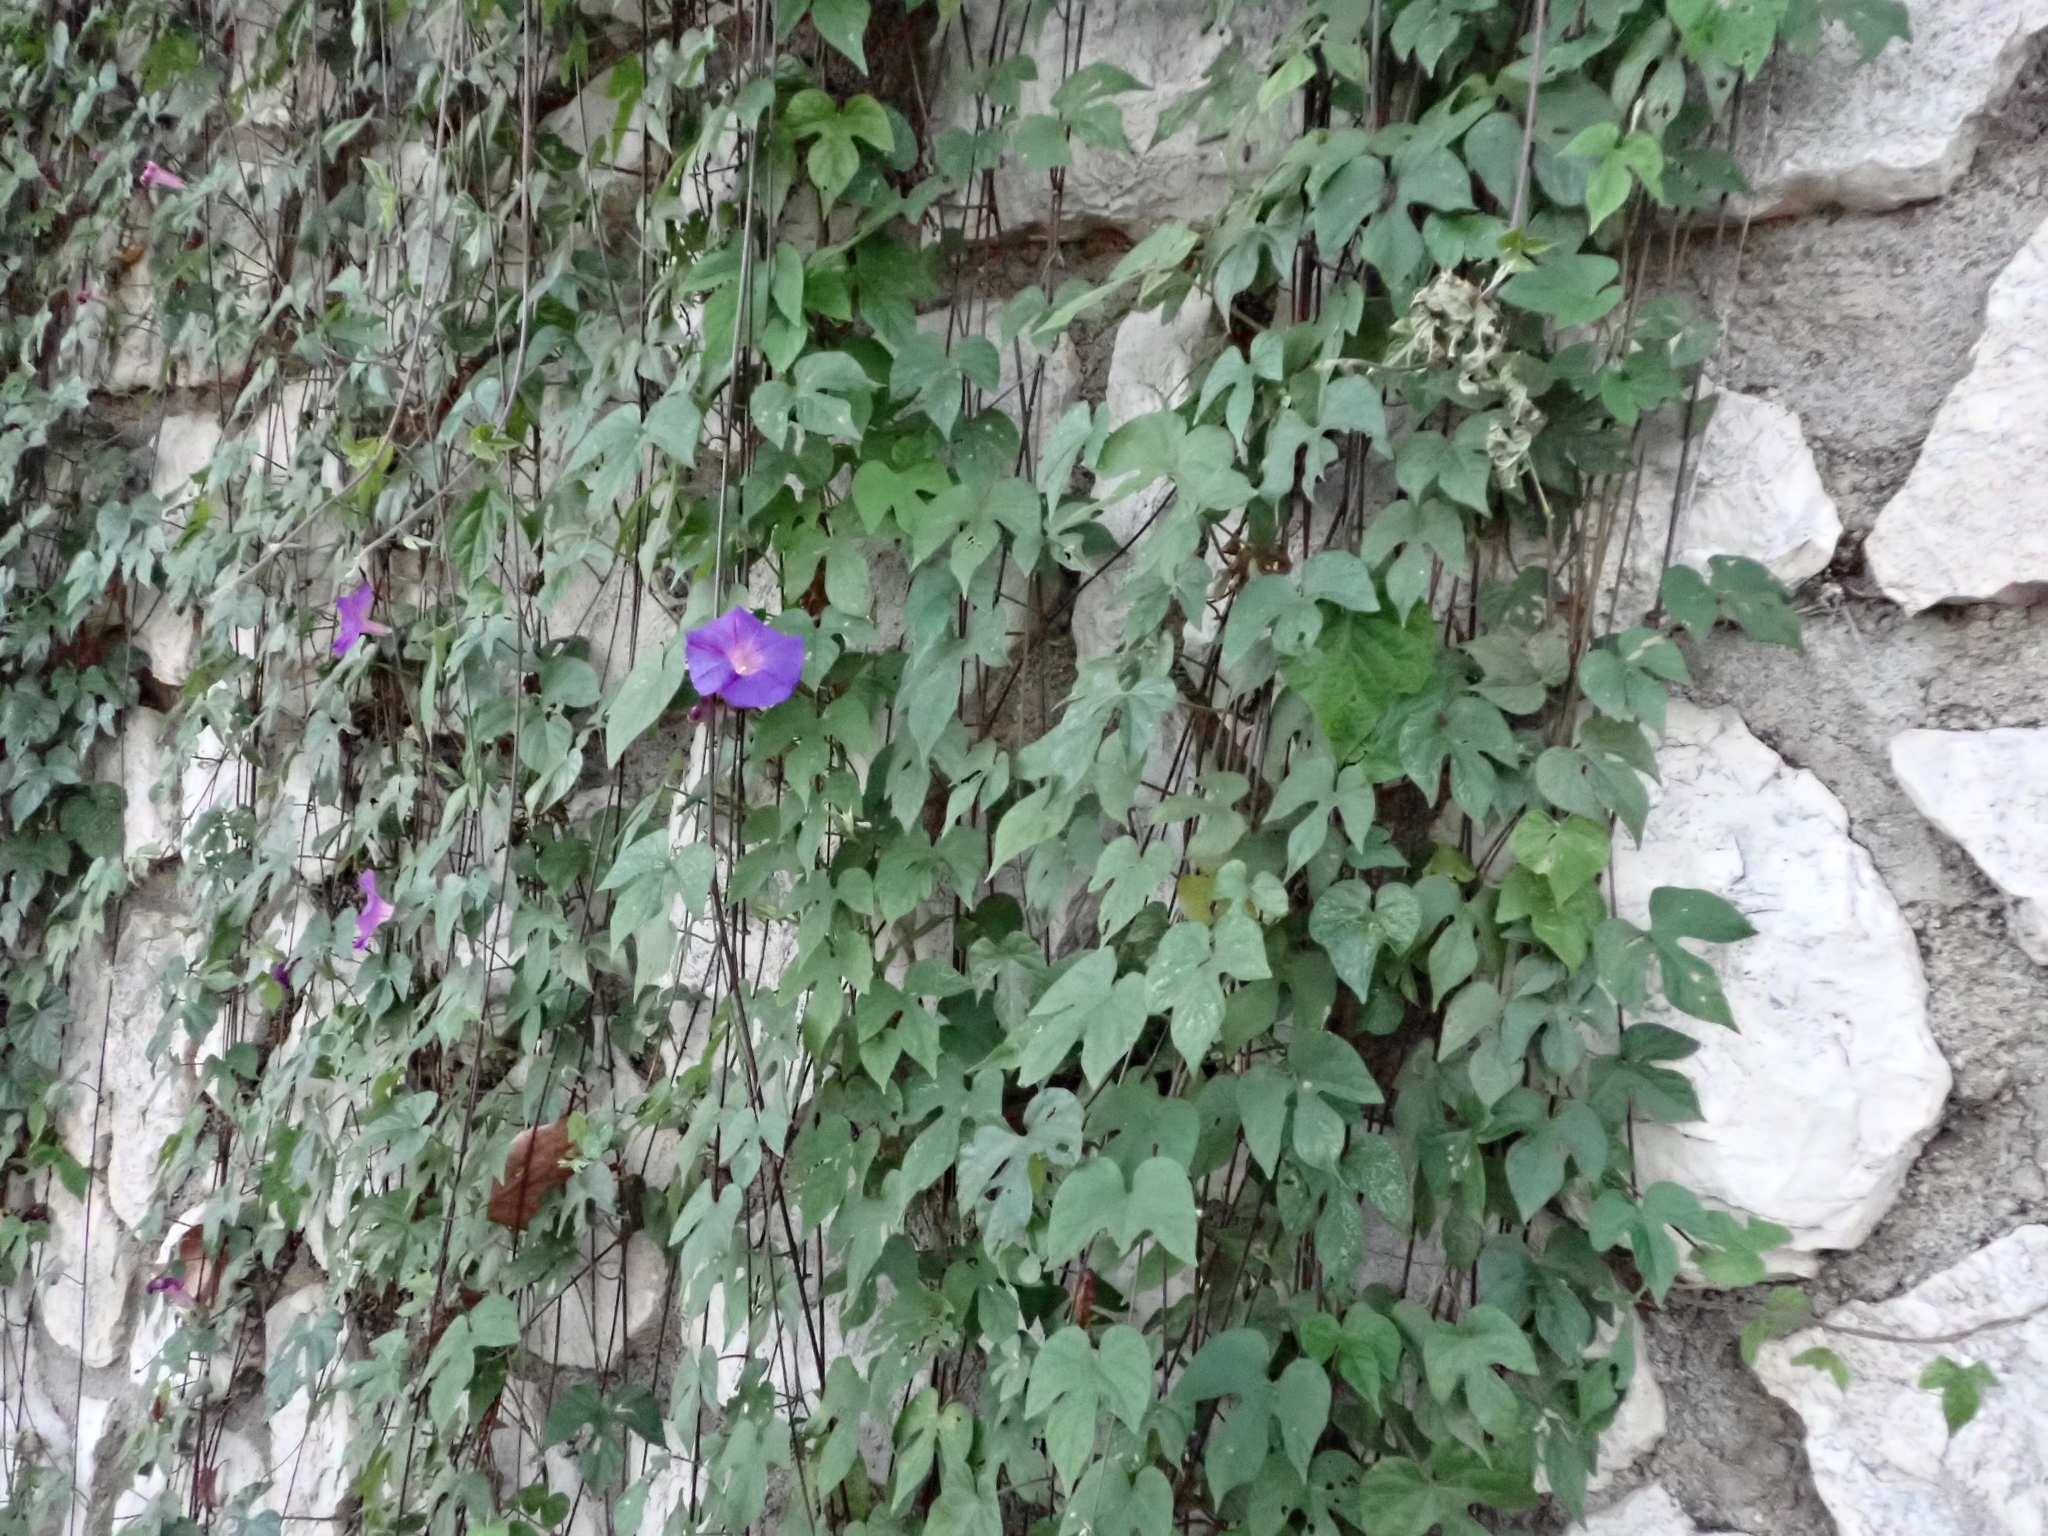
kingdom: Plantae
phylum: Tracheophyta
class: Magnoliopsida
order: Solanales
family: Convolvulaceae
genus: Ipomoea
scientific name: Ipomoea indica
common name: Blue dawnflower
